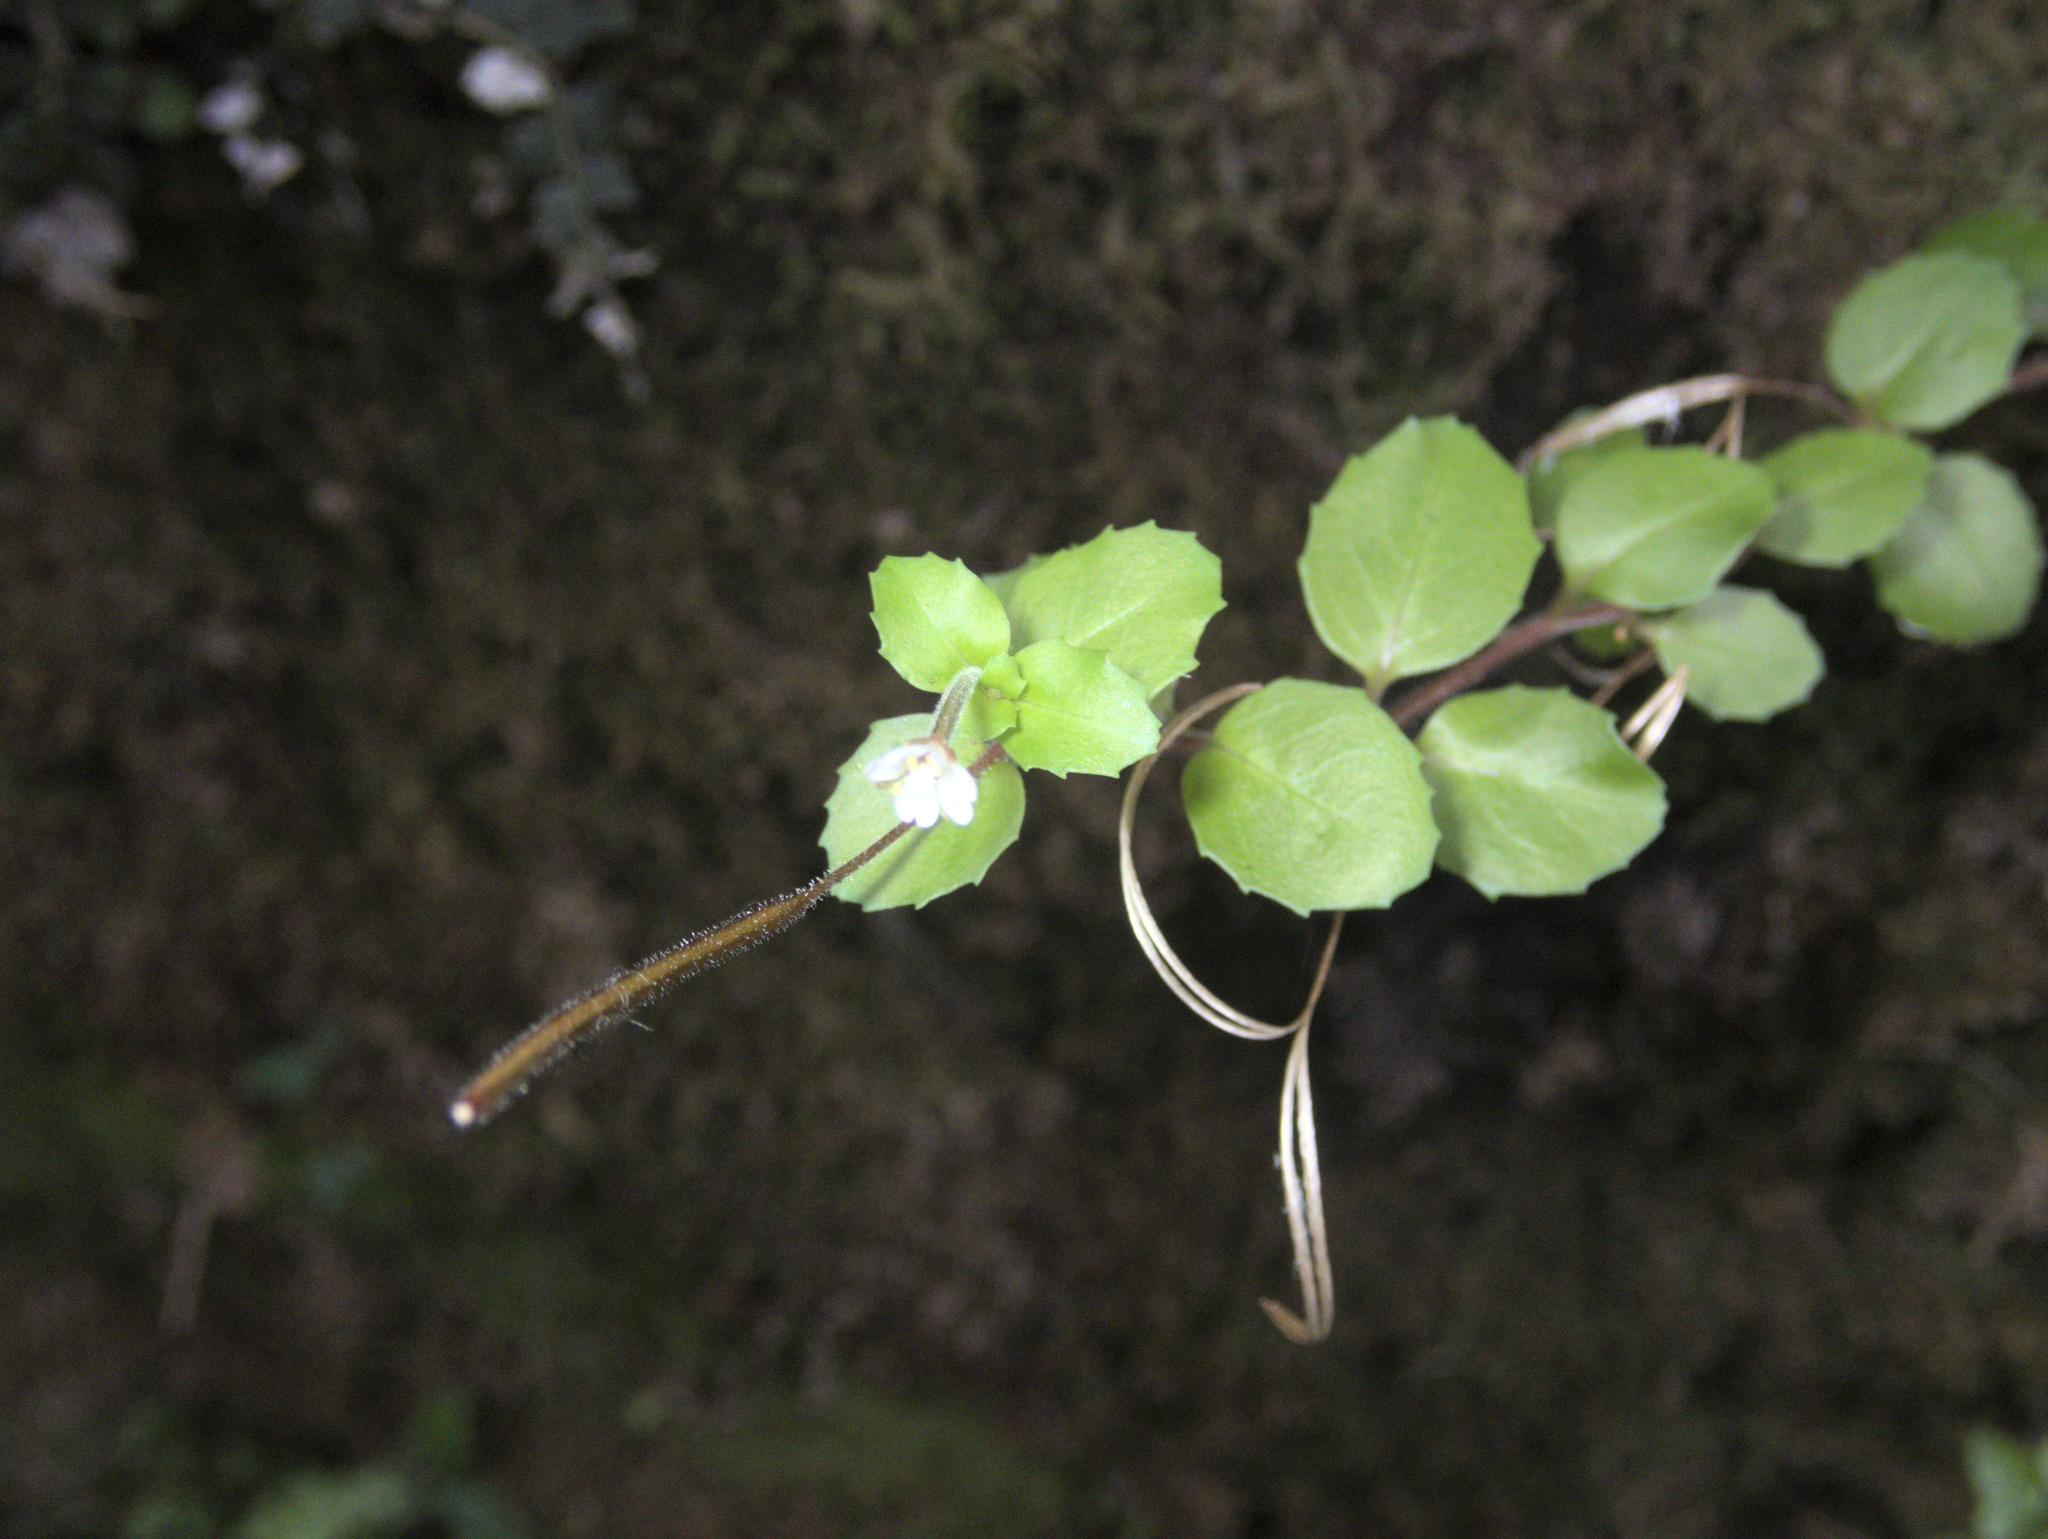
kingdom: Plantae
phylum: Tracheophyta
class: Magnoliopsida
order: Myrtales
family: Onagraceae
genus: Epilobium
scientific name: Epilobium rotundifolium
